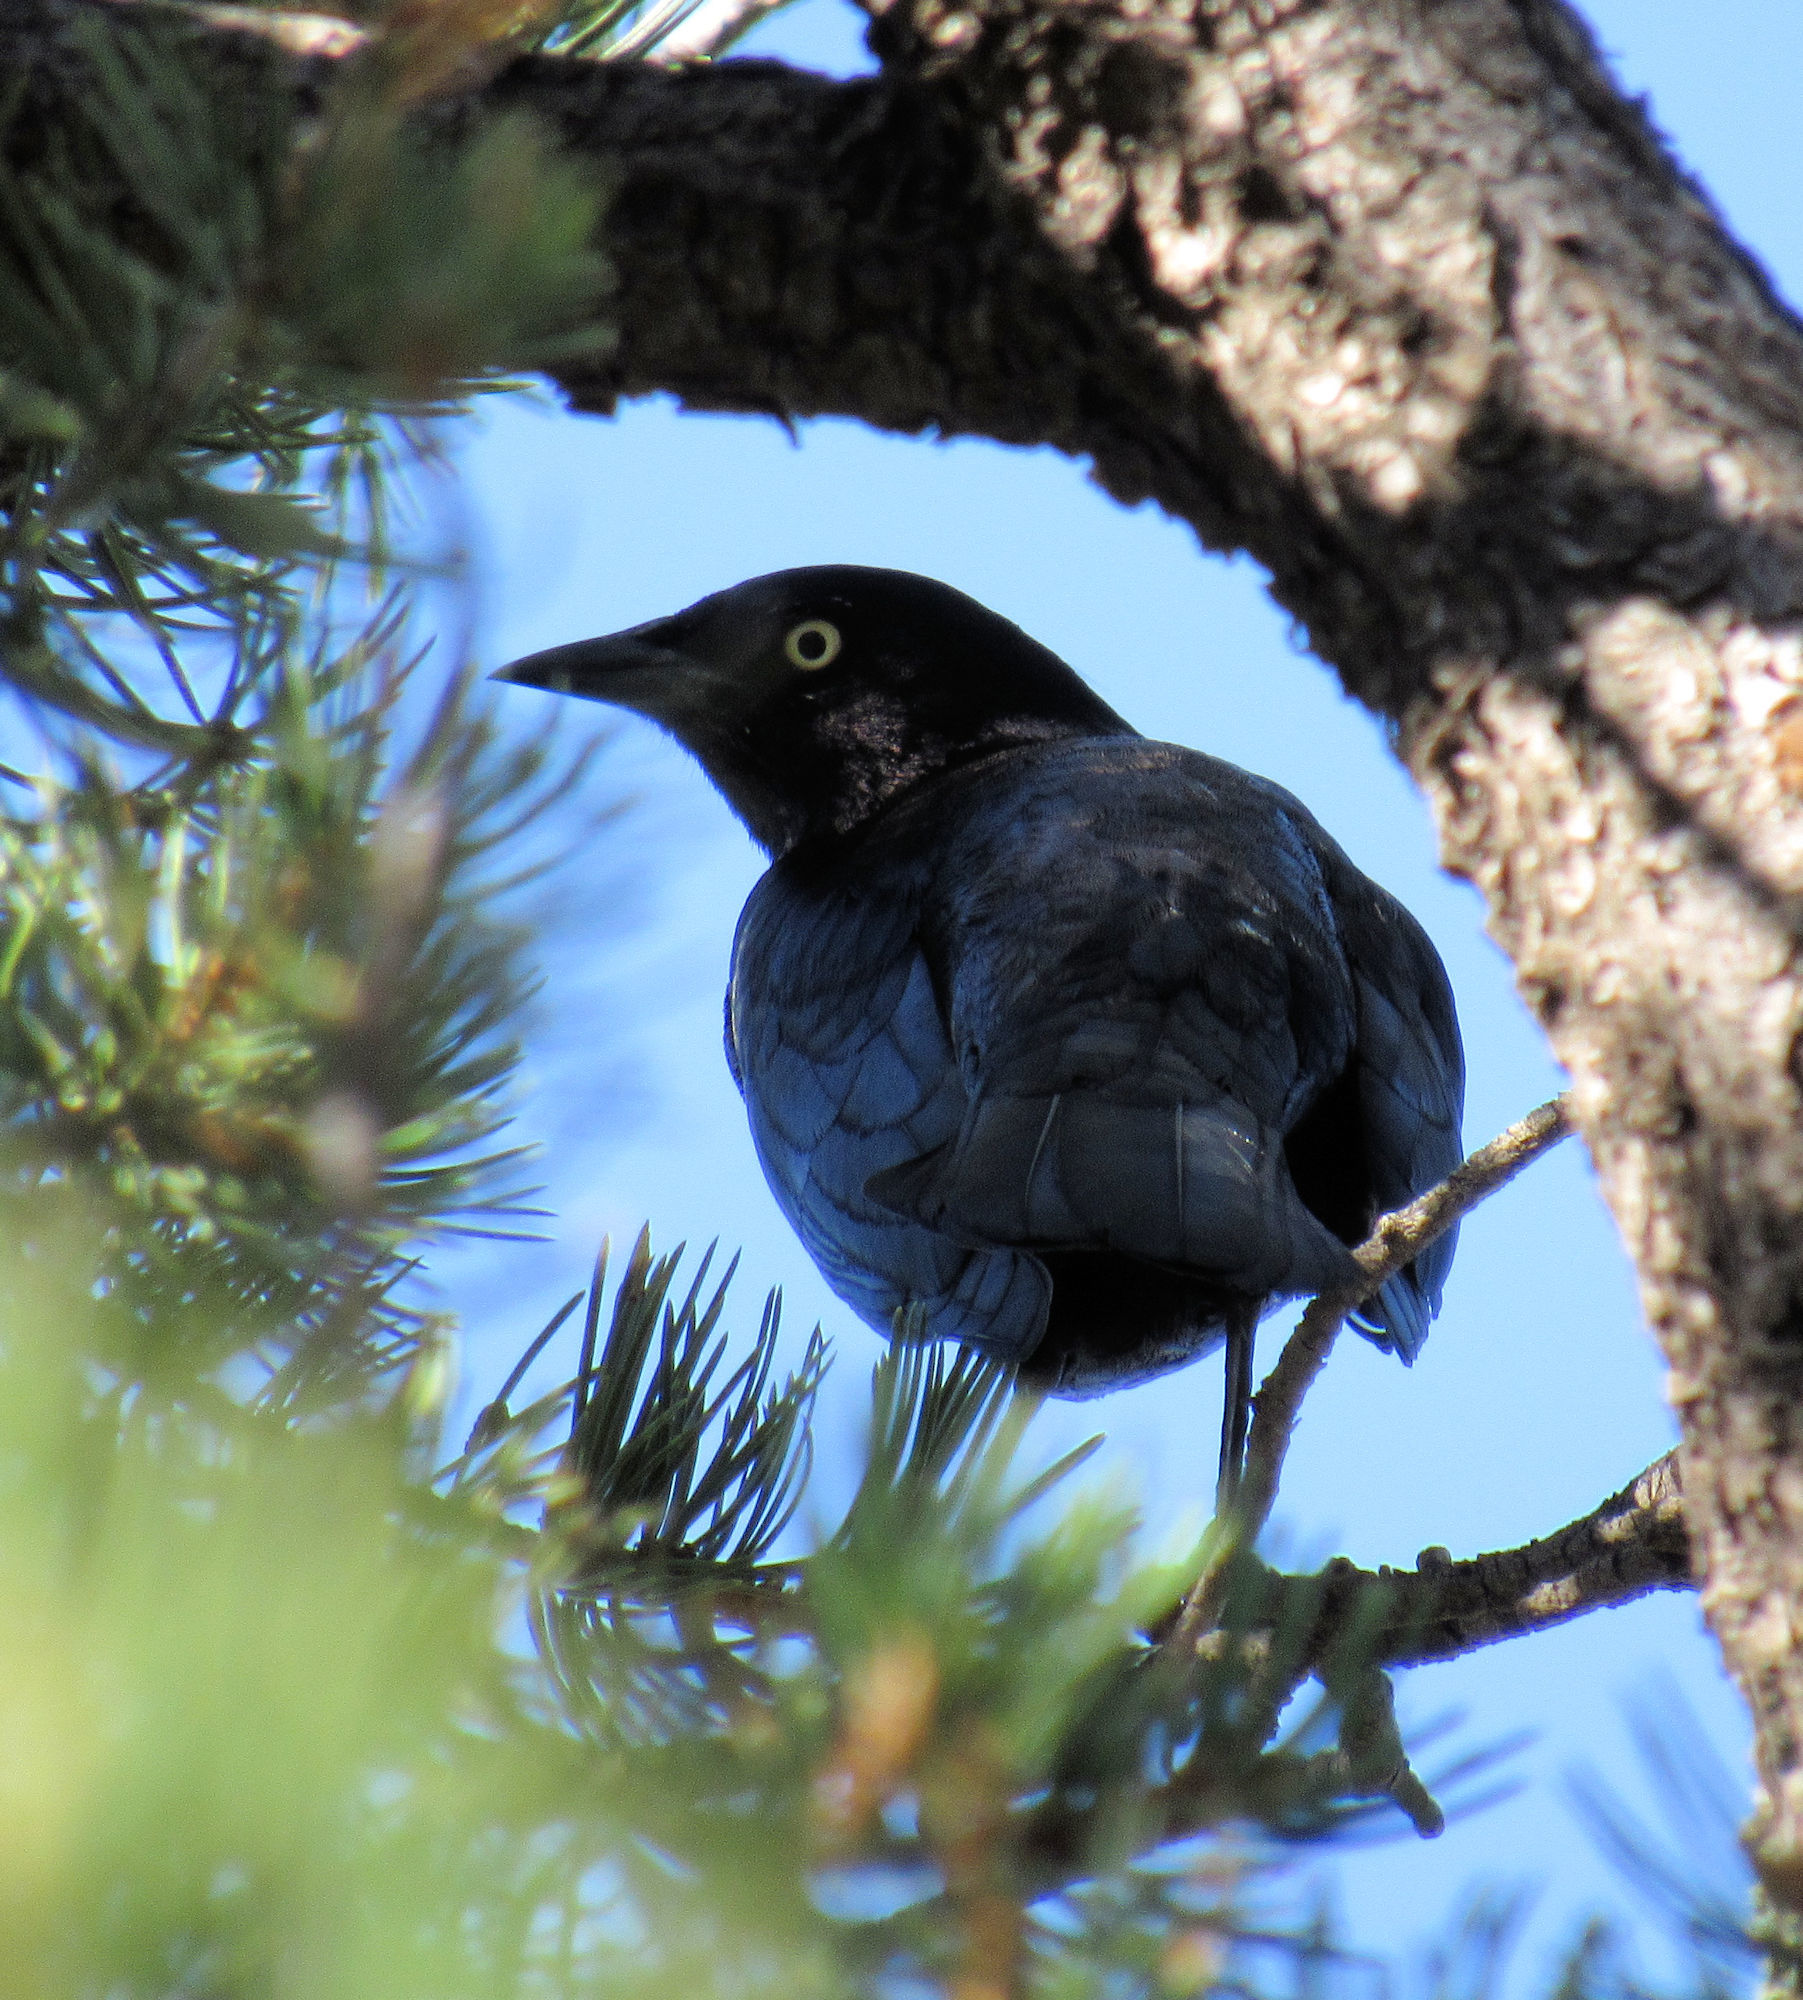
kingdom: Animalia
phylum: Chordata
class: Aves
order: Passeriformes
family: Icteridae
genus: Euphagus
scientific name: Euphagus cyanocephalus
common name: Brewer's blackbird
